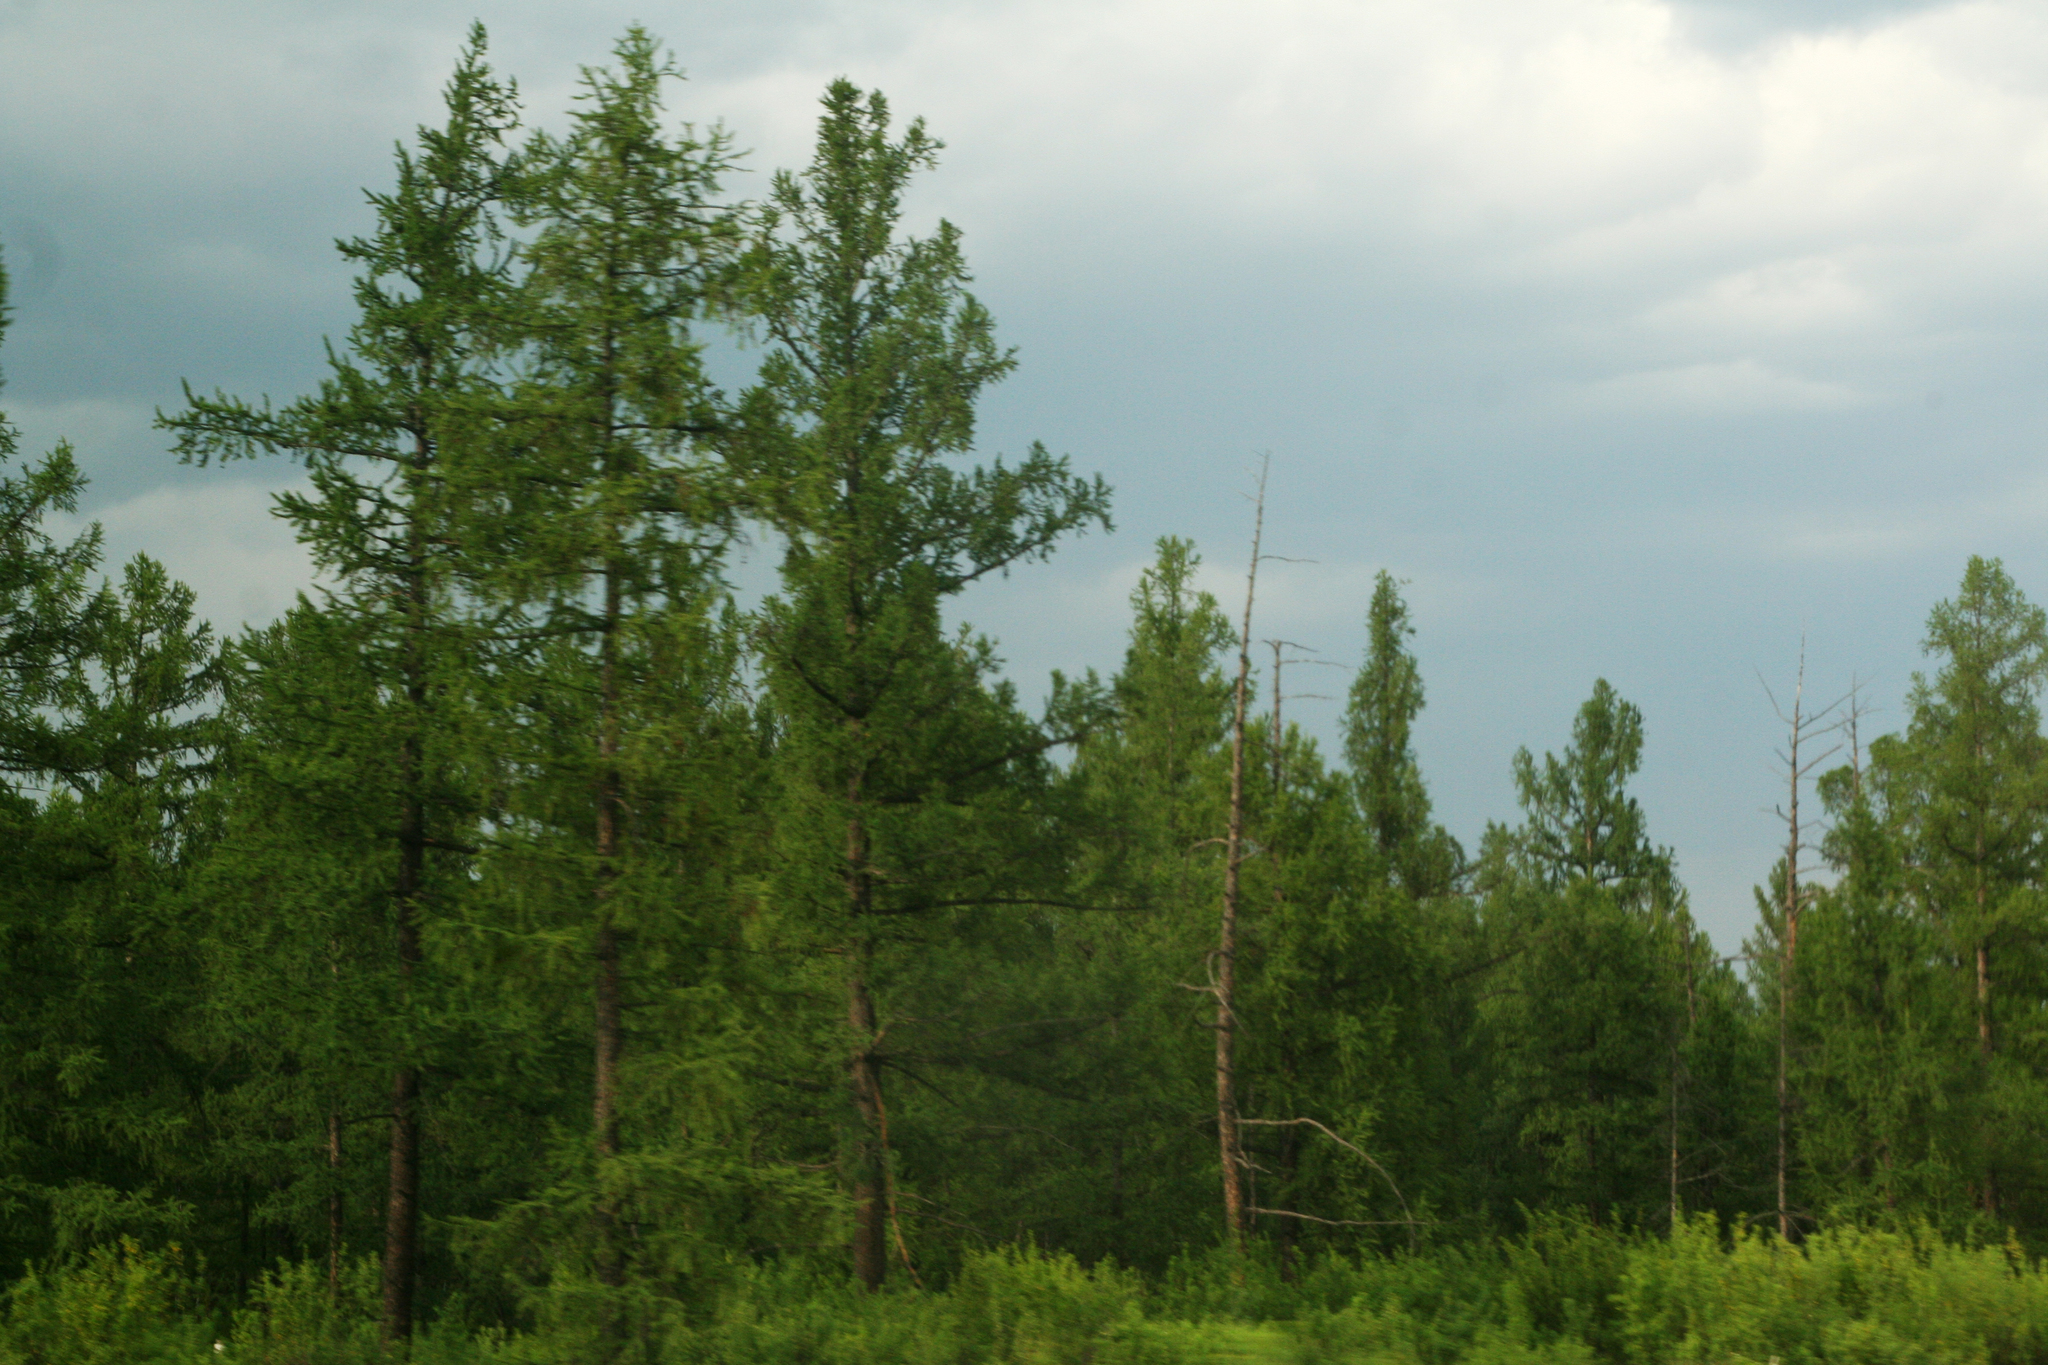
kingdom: Plantae
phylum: Tracheophyta
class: Pinopsida
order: Pinales
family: Pinaceae
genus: Larix
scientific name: Larix sibirica
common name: Siberian larch
